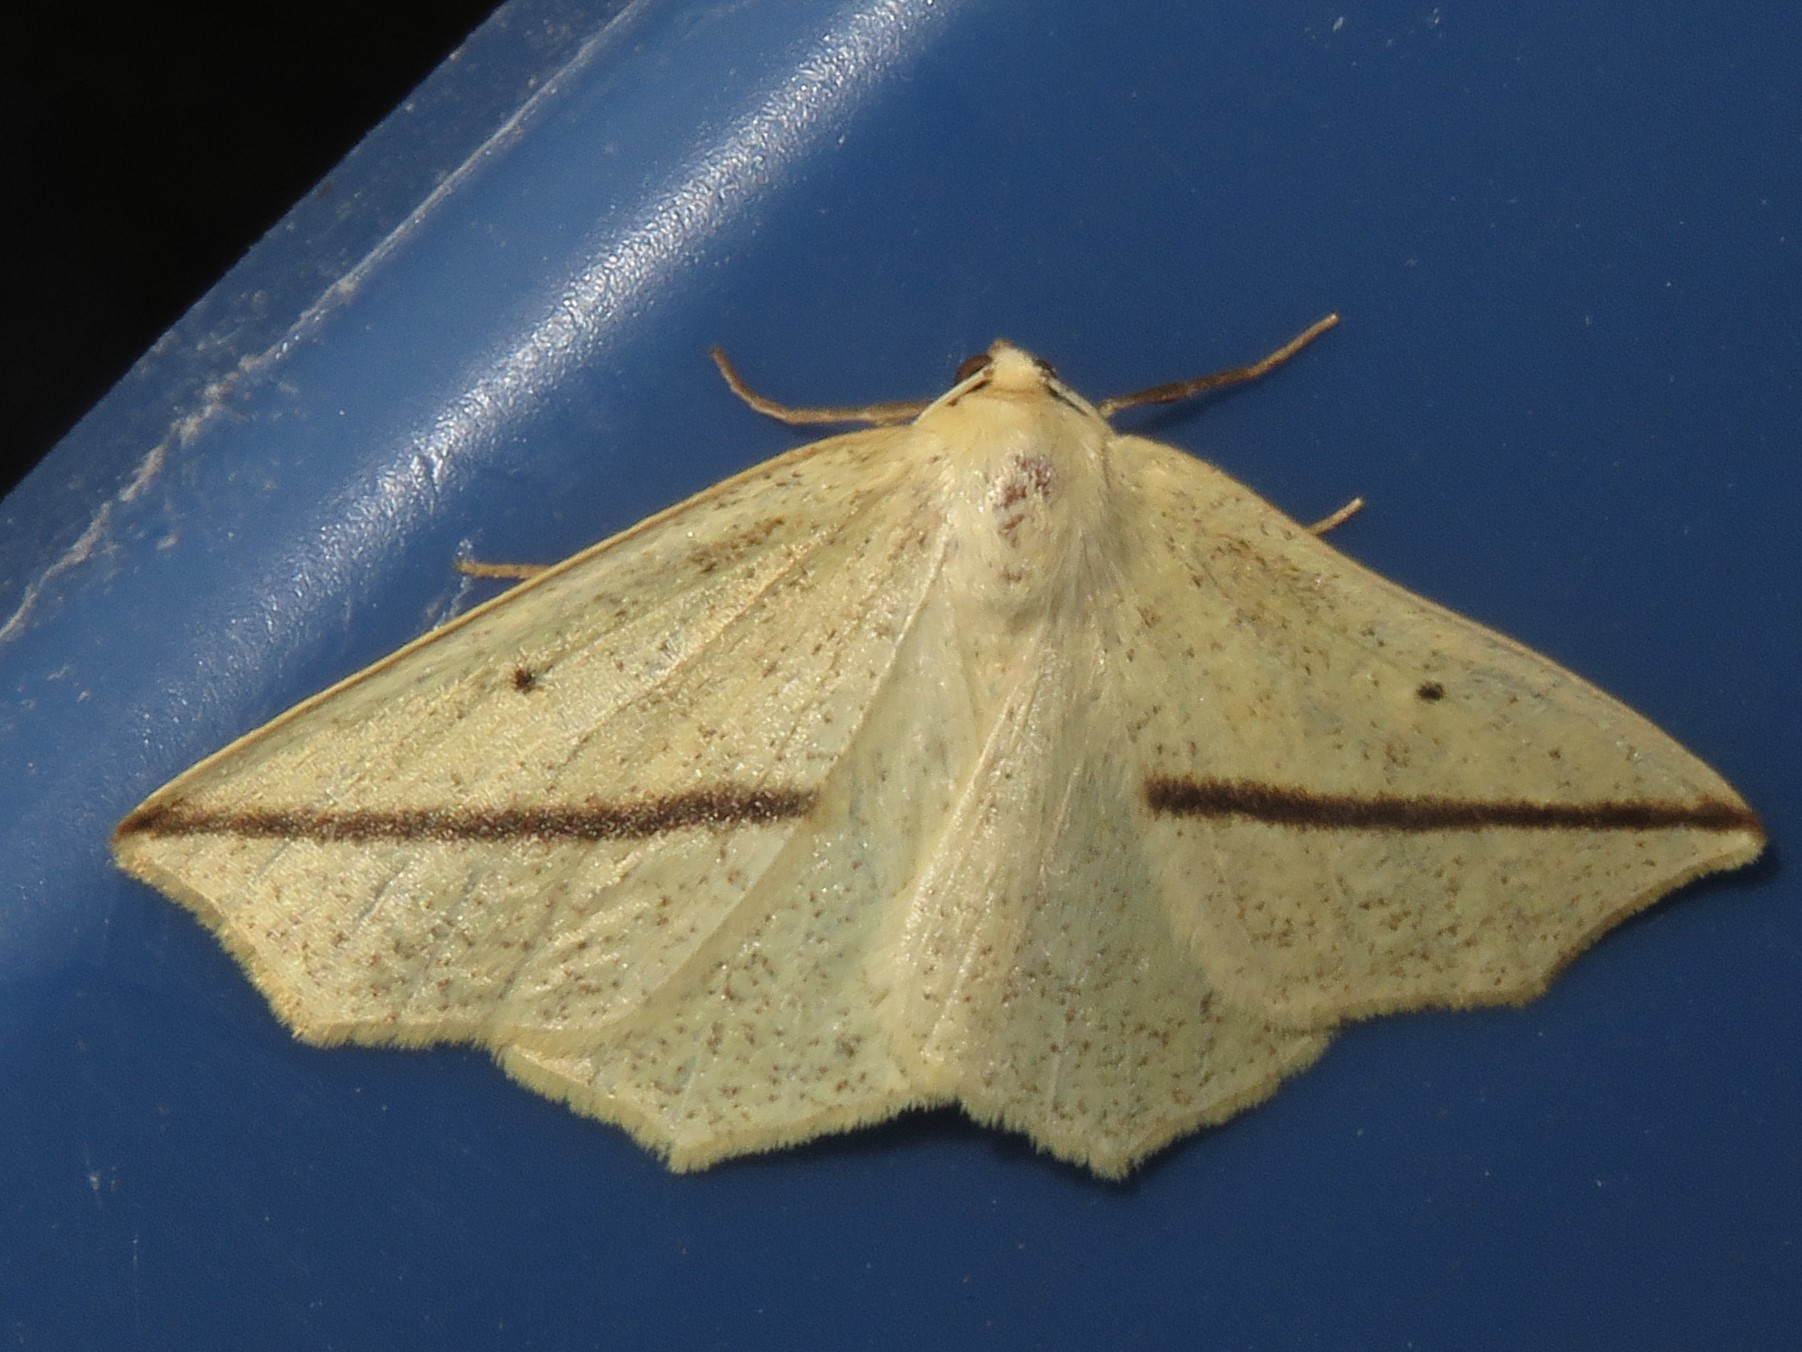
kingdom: Animalia
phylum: Arthropoda
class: Insecta
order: Lepidoptera
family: Geometridae
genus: Tetracis
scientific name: Tetracis crocallata
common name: Yellow slant-line
